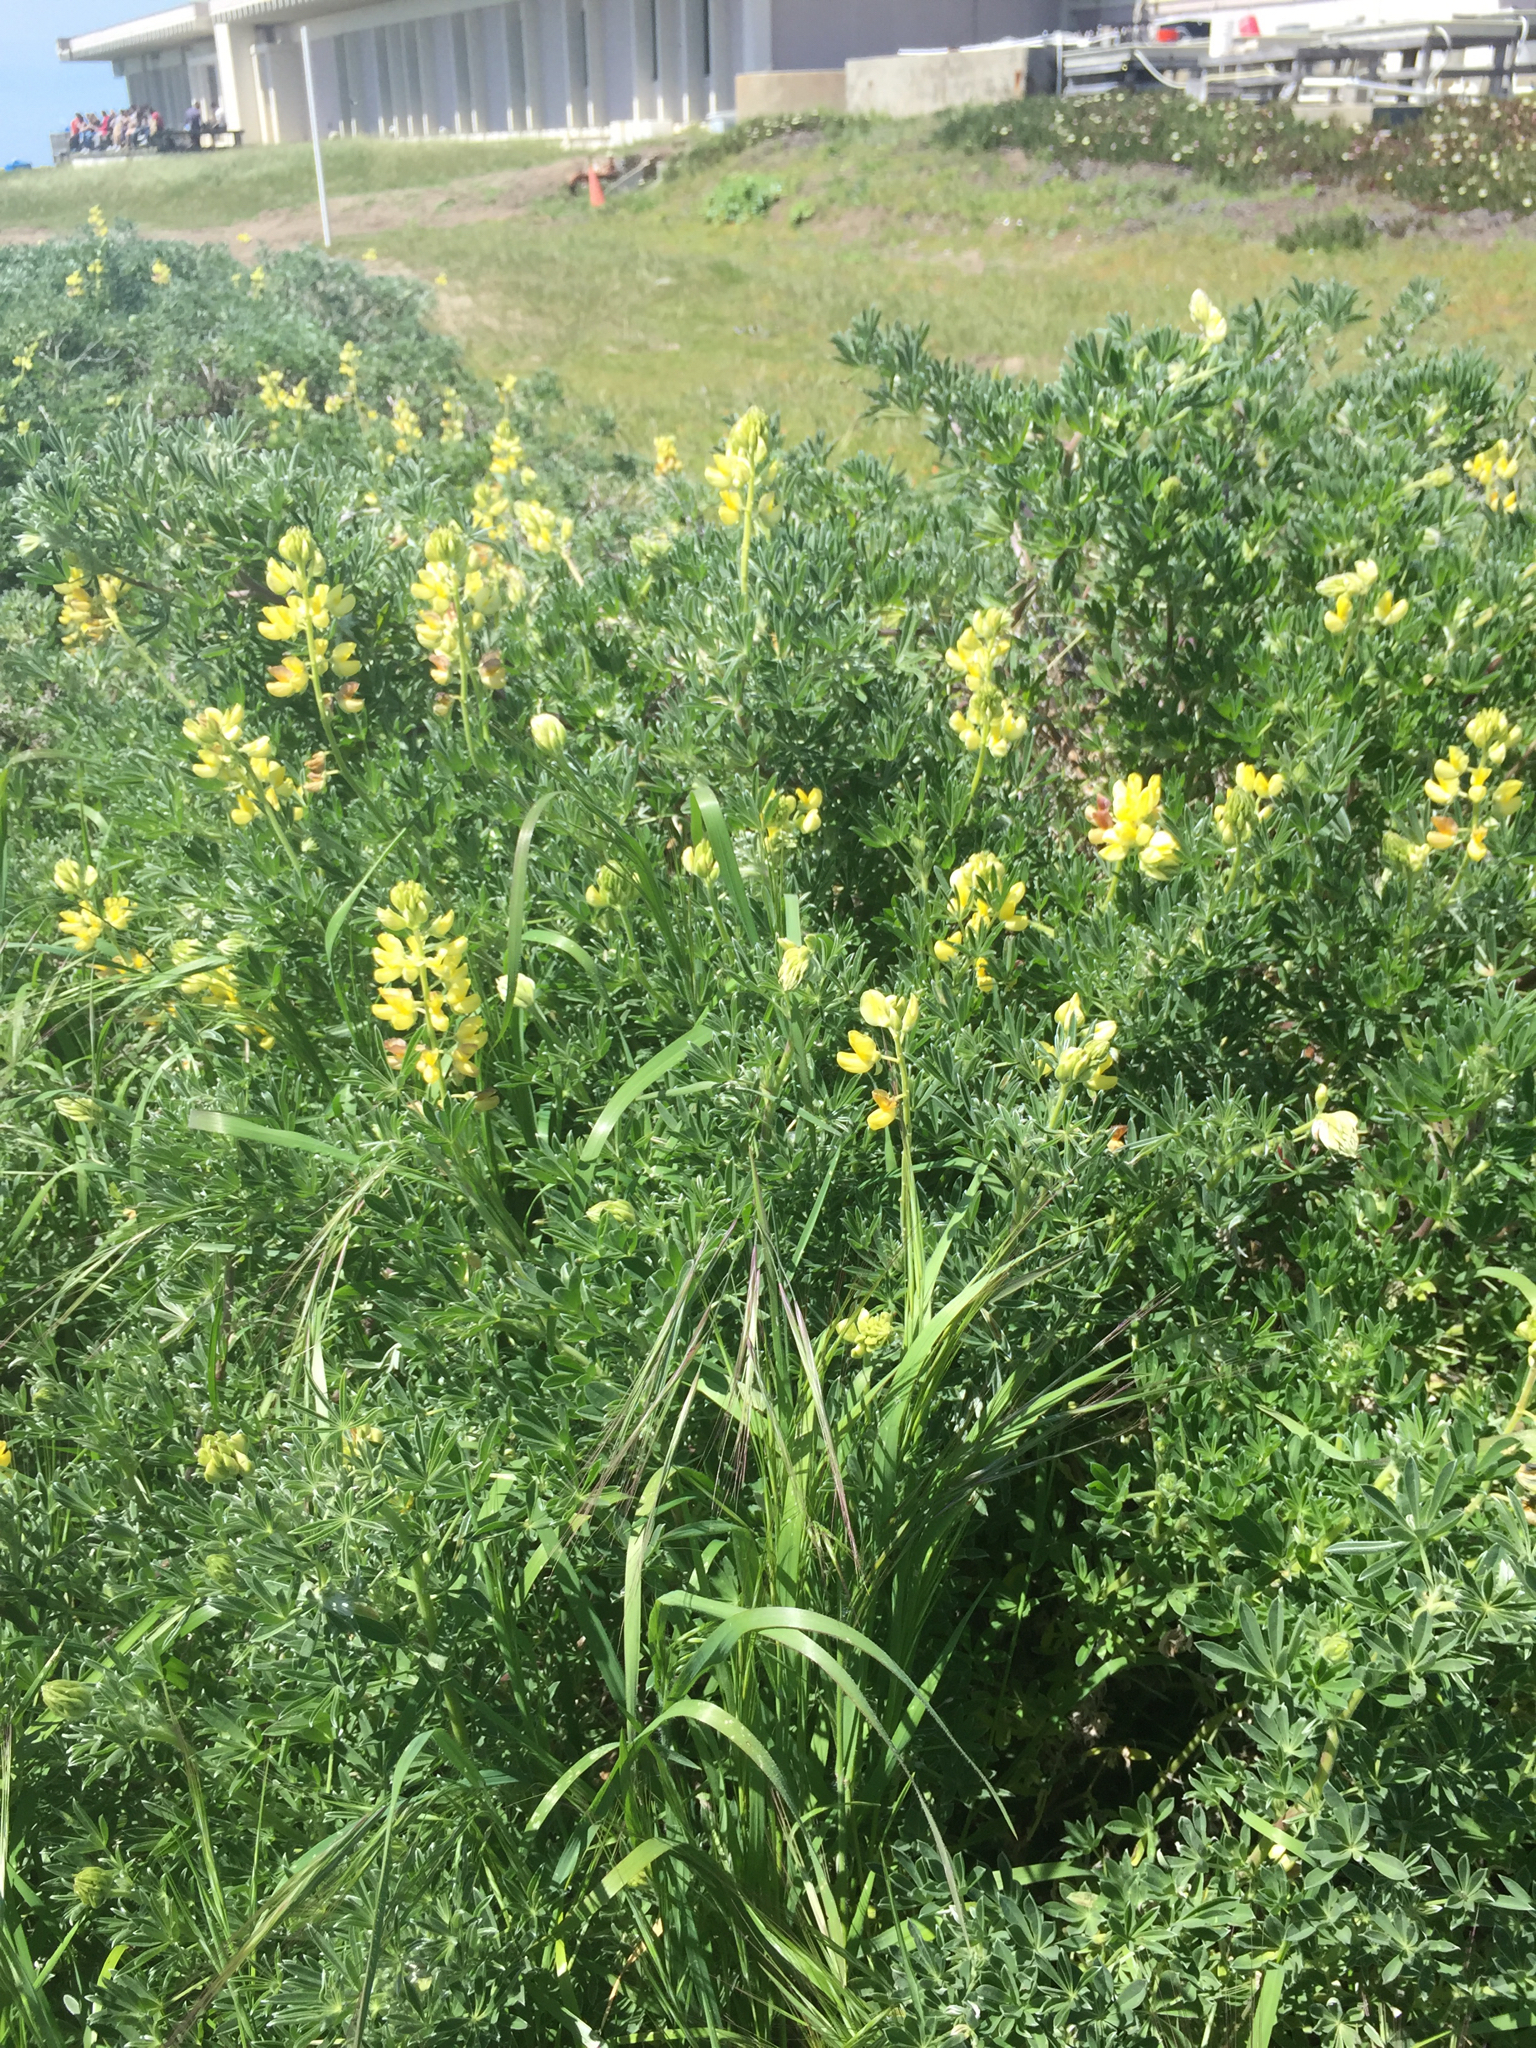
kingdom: Plantae
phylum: Tracheophyta
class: Magnoliopsida
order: Fabales
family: Fabaceae
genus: Lupinus
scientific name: Lupinus arboreus
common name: Yellow bush lupine
